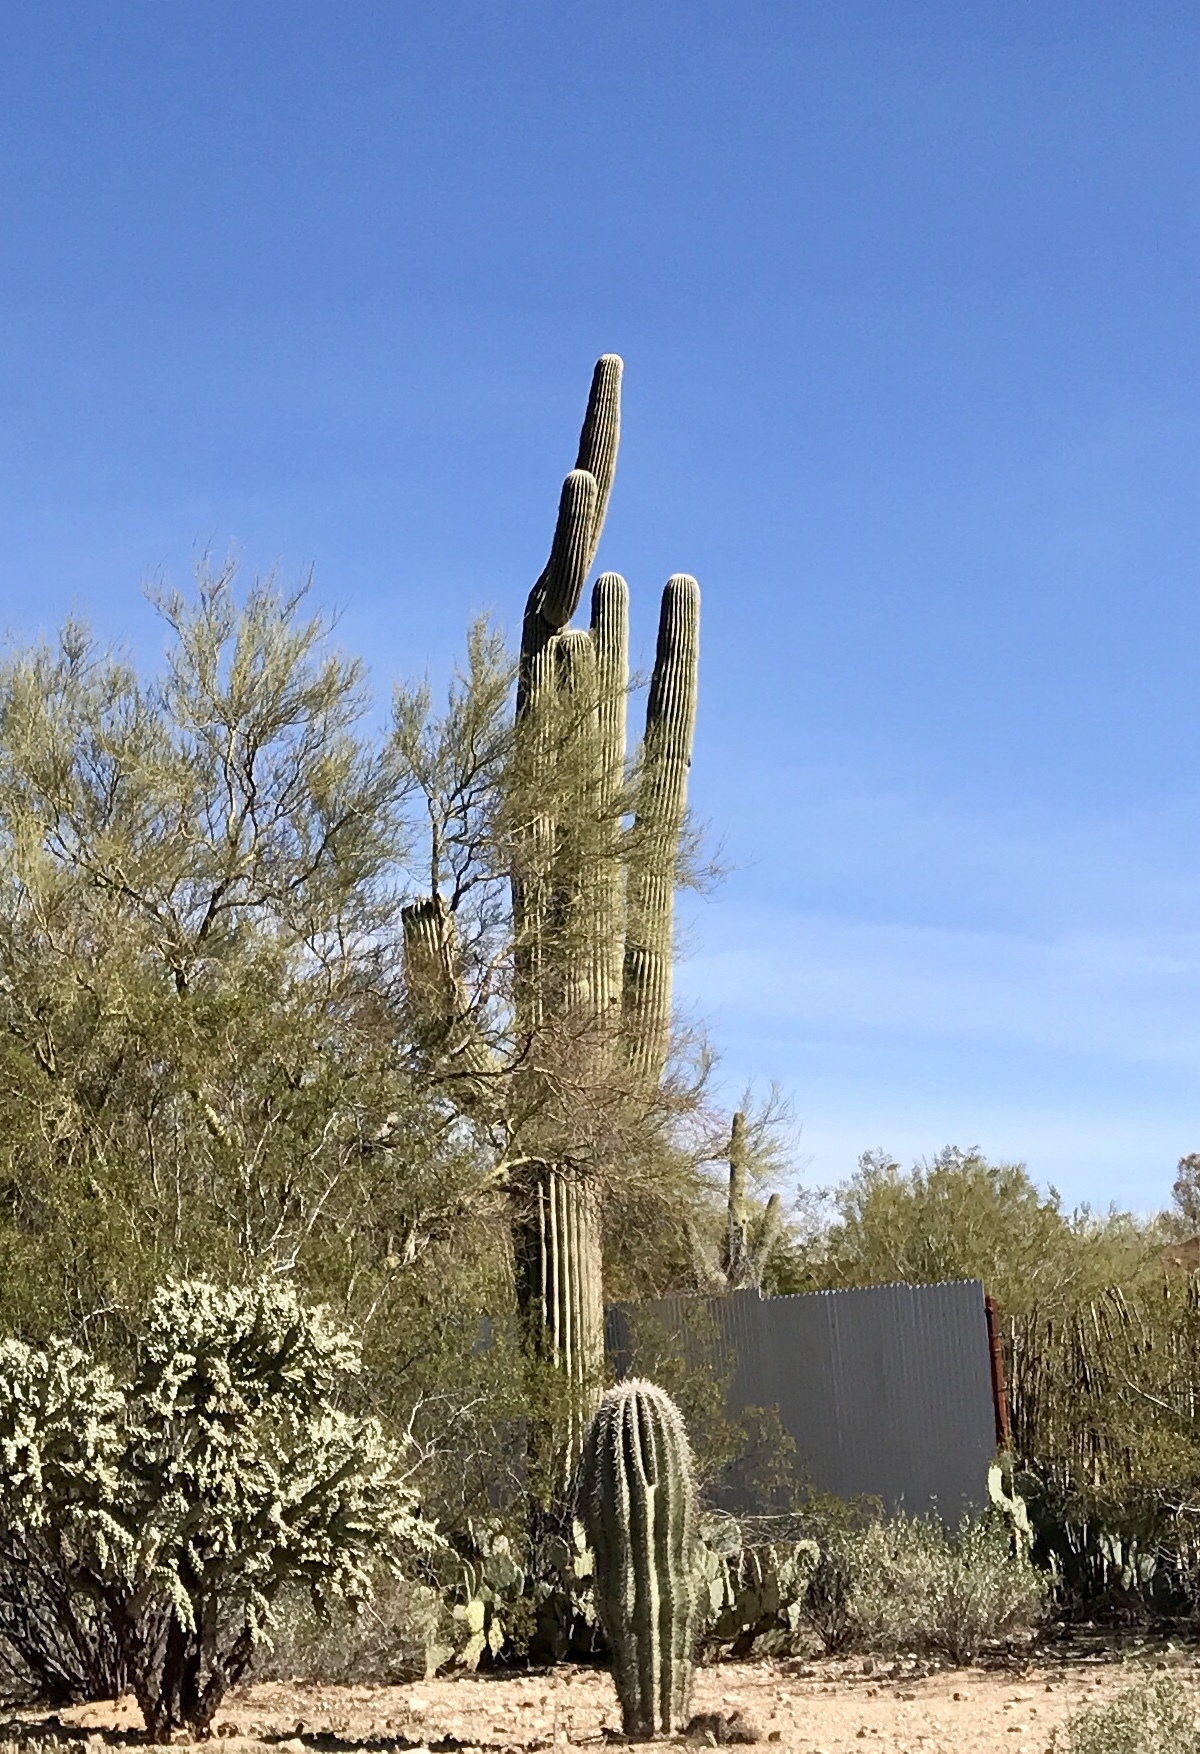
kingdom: Plantae
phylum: Tracheophyta
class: Magnoliopsida
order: Caryophyllales
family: Cactaceae
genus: Carnegiea
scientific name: Carnegiea gigantea
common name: Saguaro
